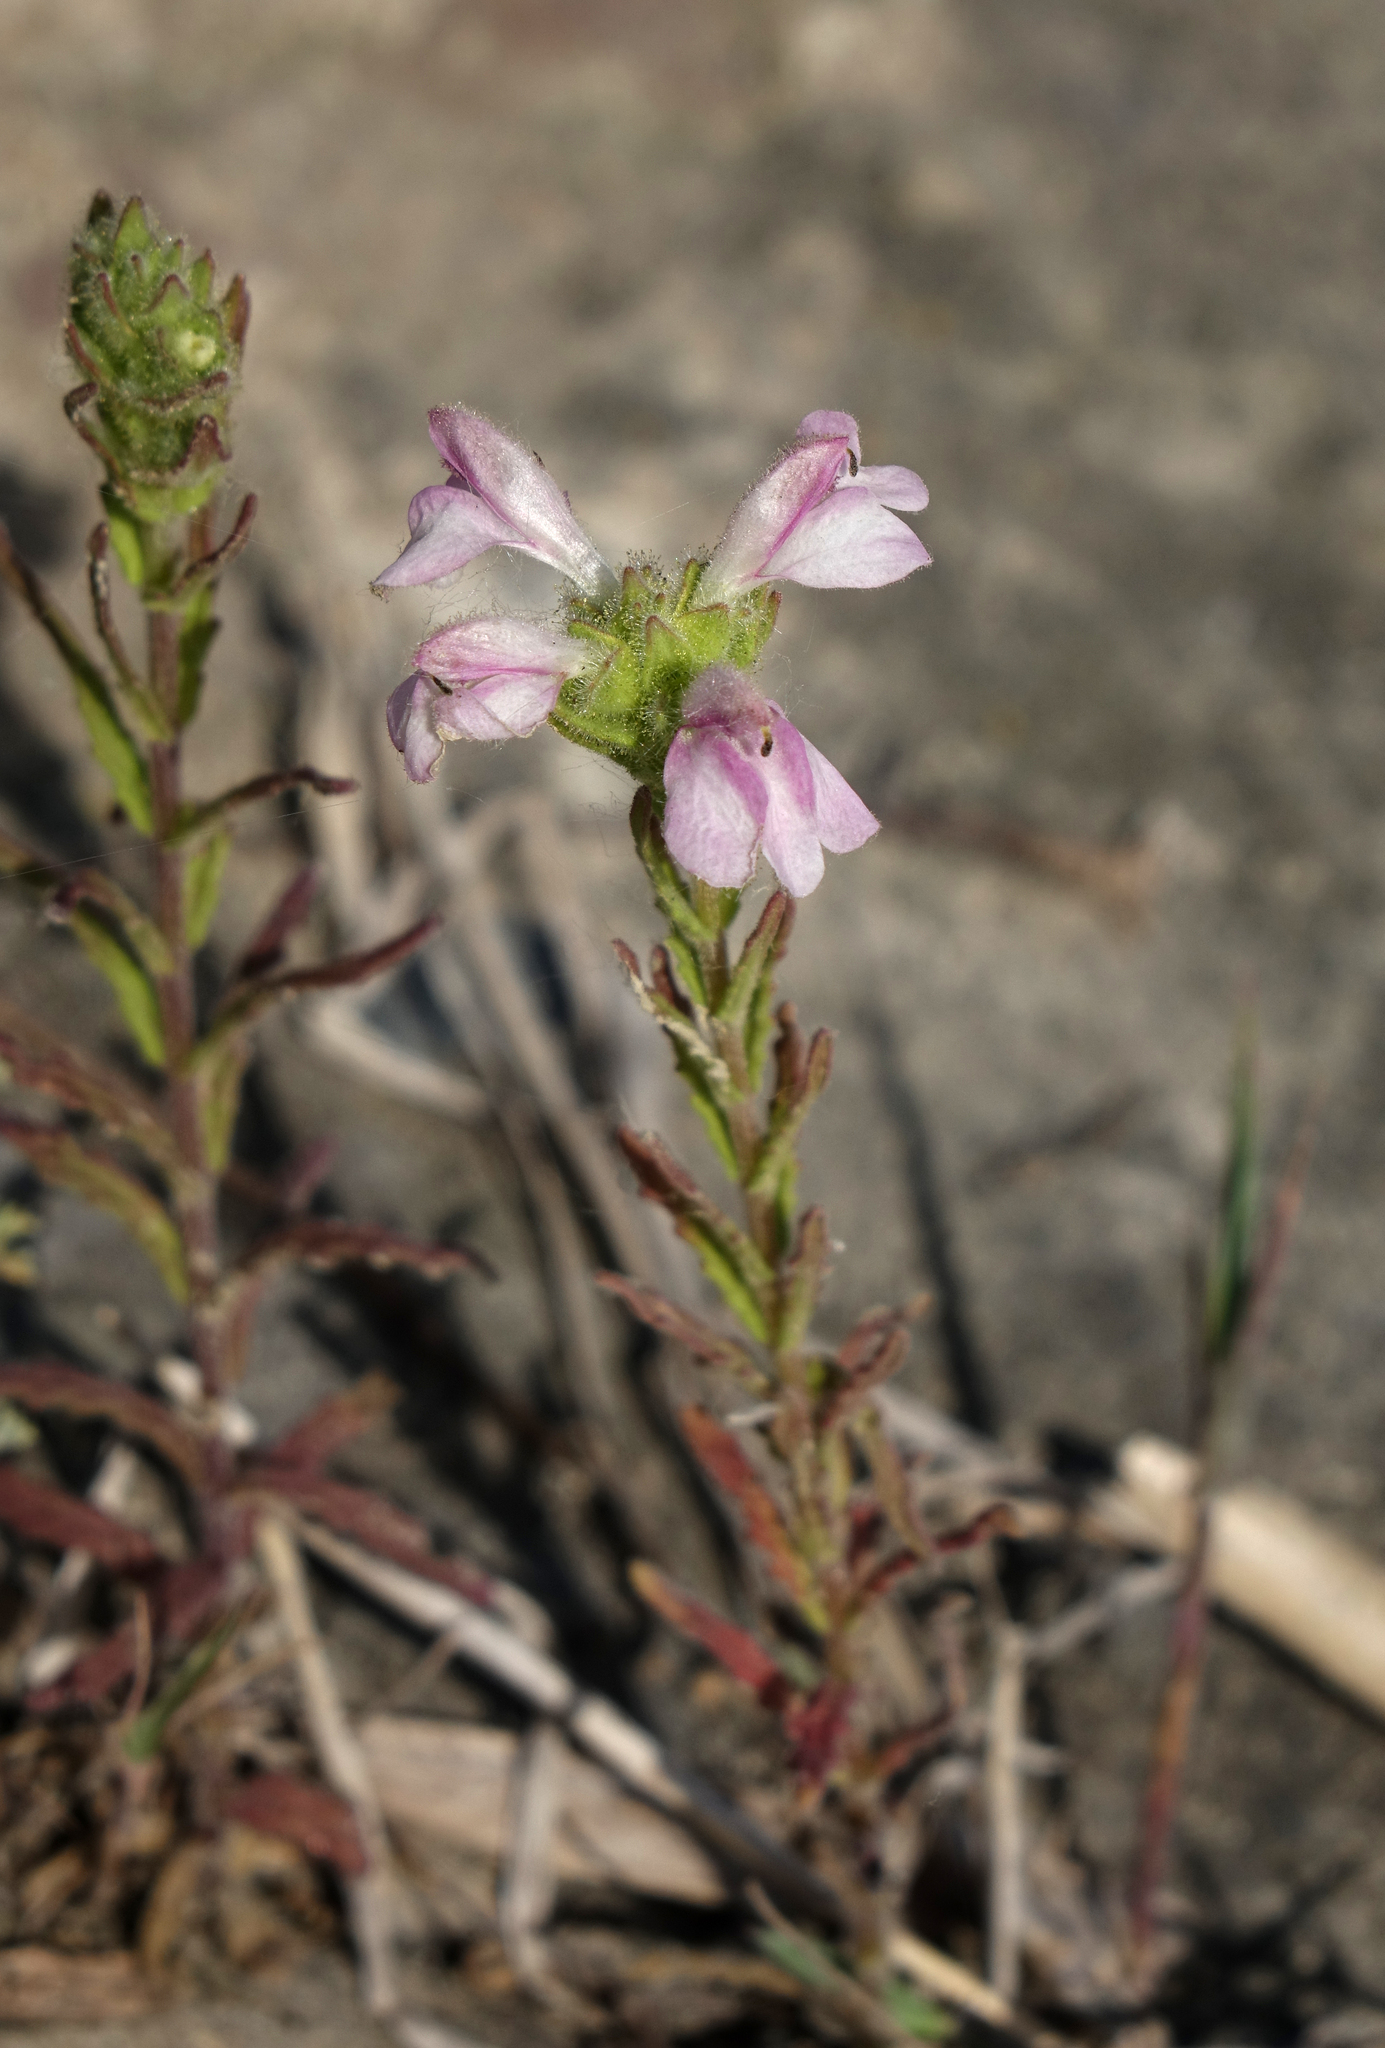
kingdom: Plantae
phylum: Tracheophyta
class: Magnoliopsida
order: Lamiales
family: Orobanchaceae
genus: Bellardia
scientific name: Bellardia trixago
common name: Mediterranean lineseed
